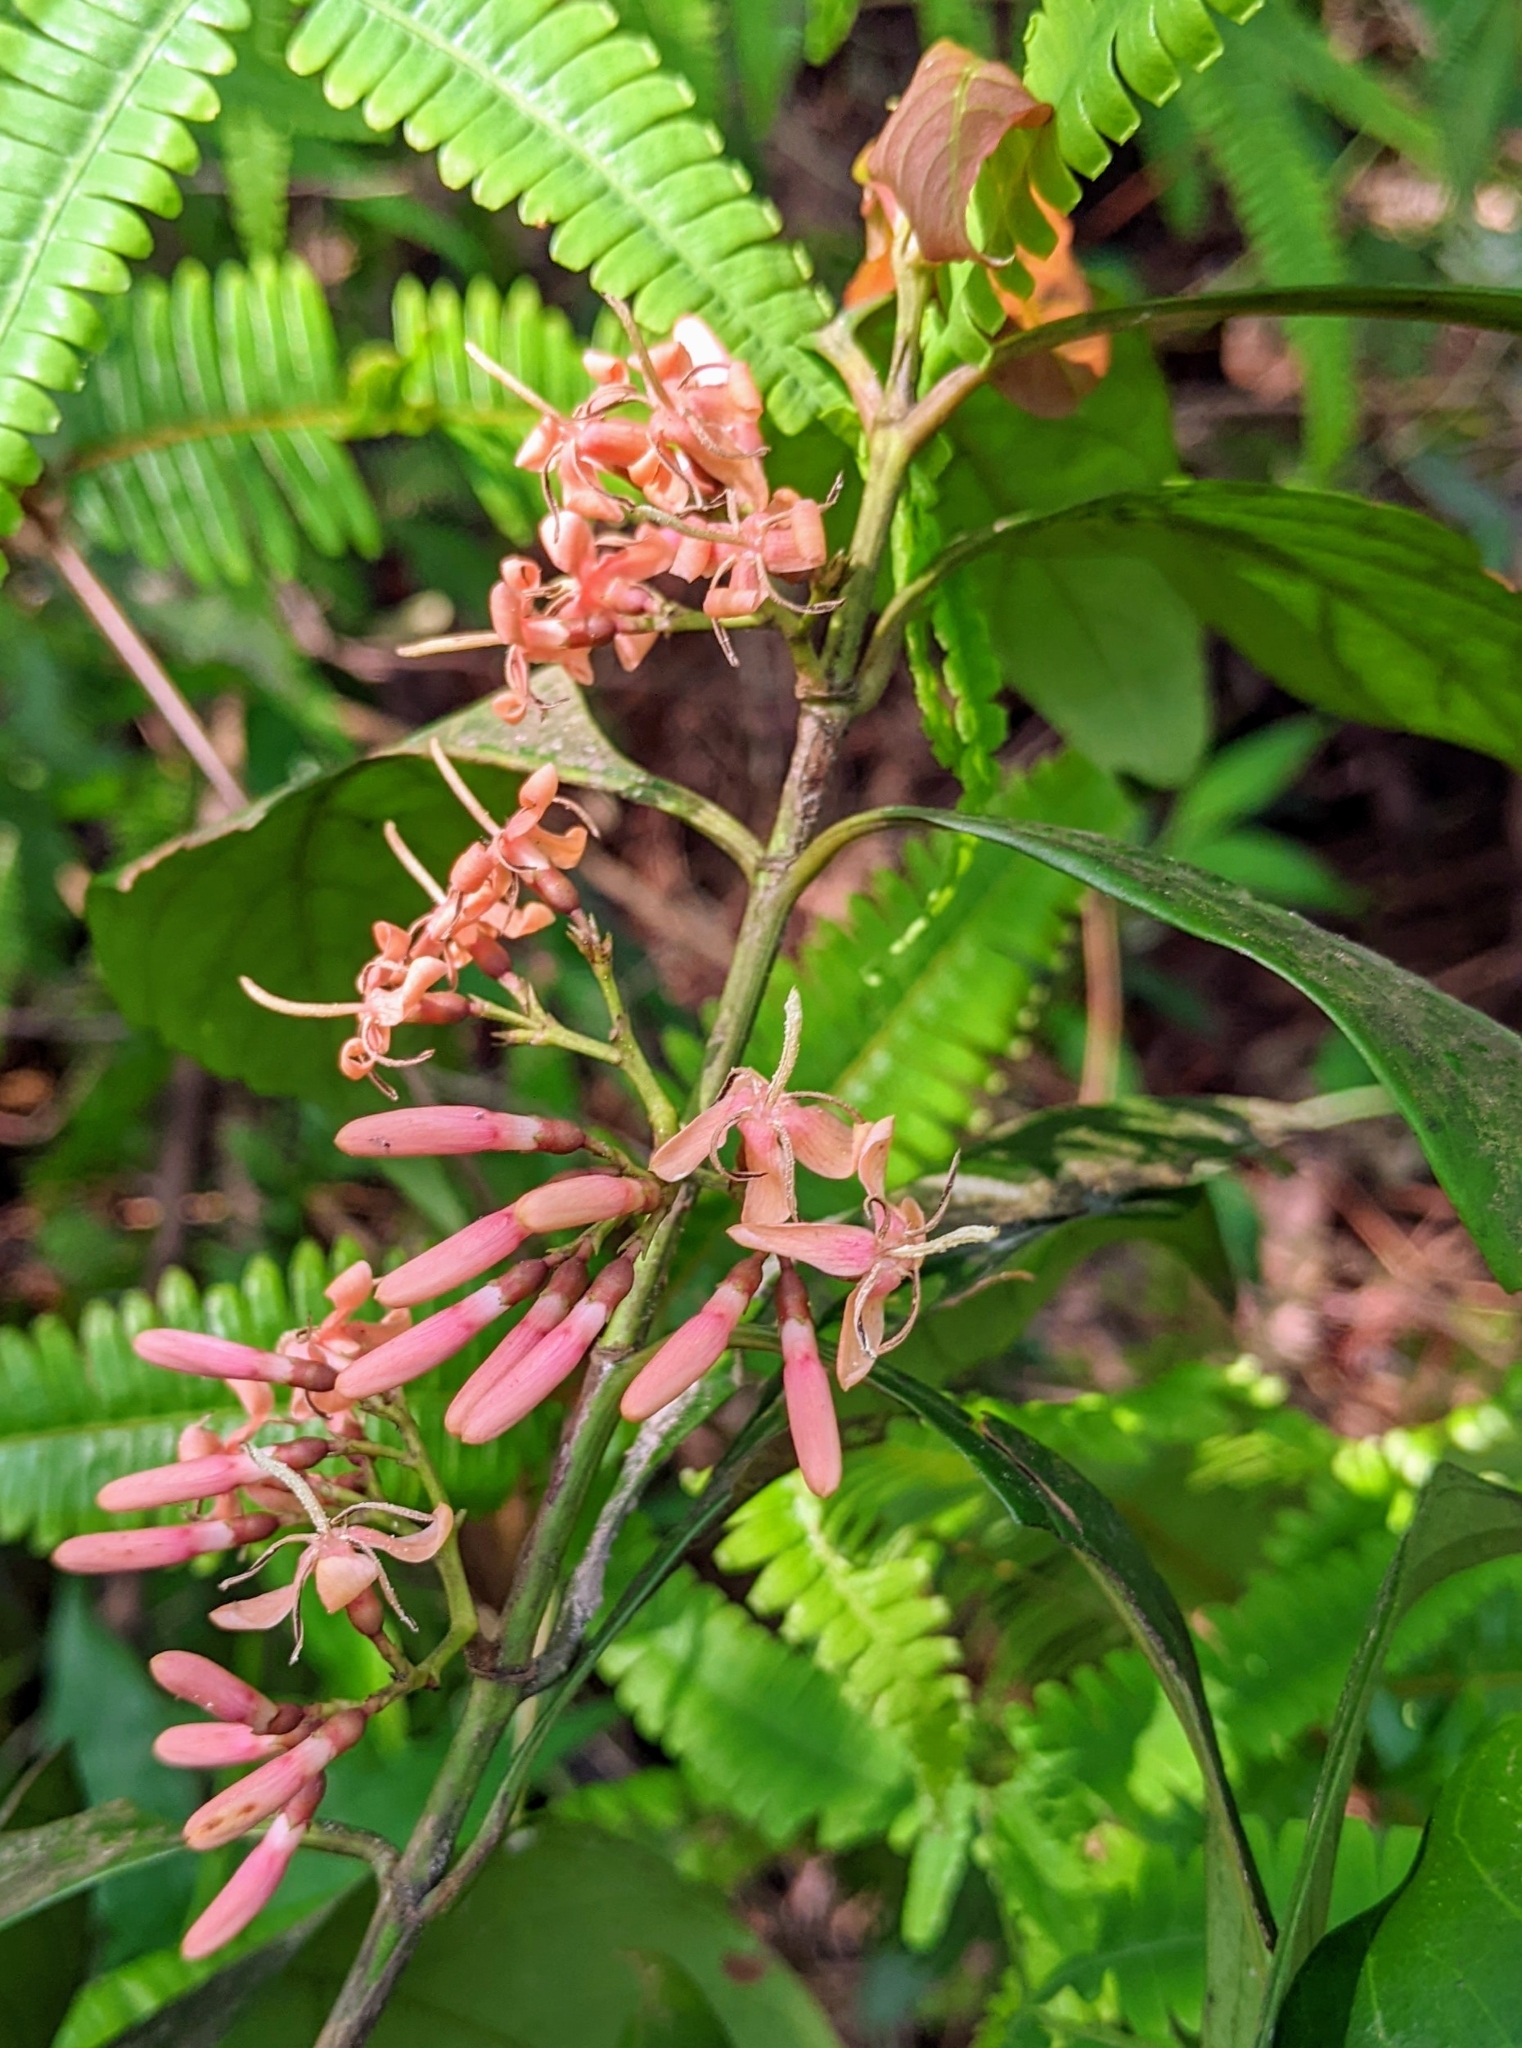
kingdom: Plantae
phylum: Tracheophyta
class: Magnoliopsida
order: Gentianales
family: Rubiaceae
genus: Aidia
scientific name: Aidia cochinchinensis
